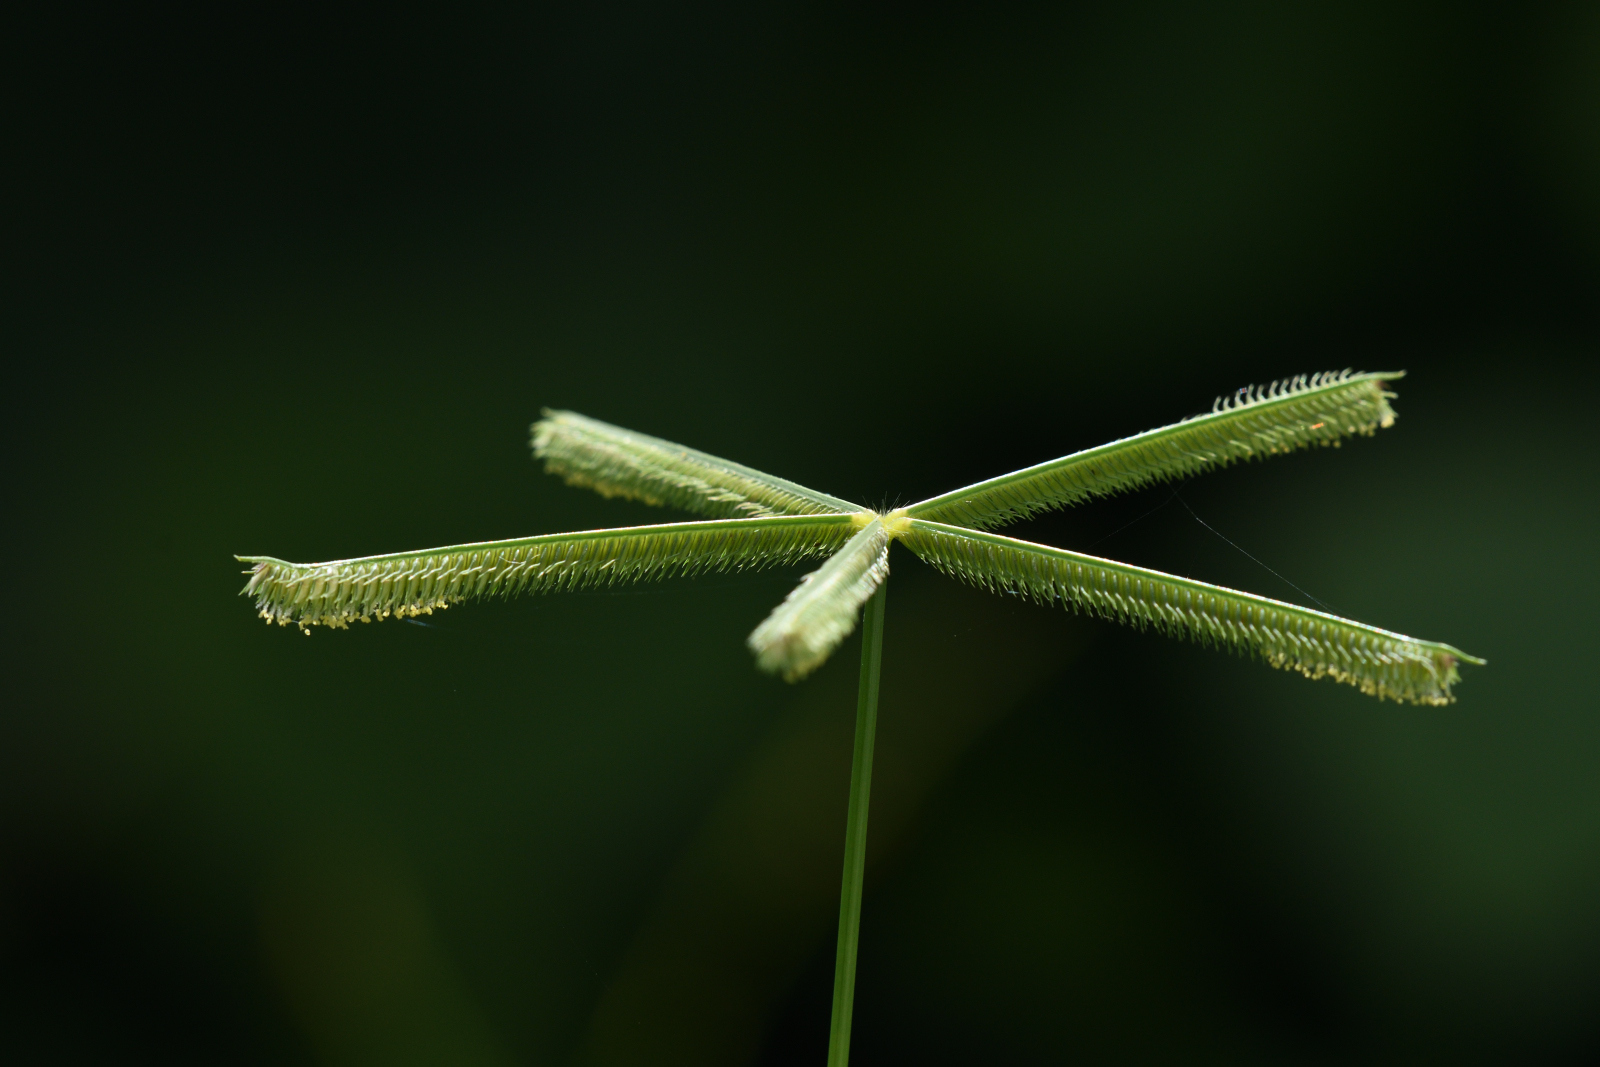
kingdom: Plantae
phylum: Tracheophyta
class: Liliopsida
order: Poales
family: Poaceae
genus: Dactyloctenium
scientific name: Dactyloctenium aegyptium
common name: Egyptian grass
